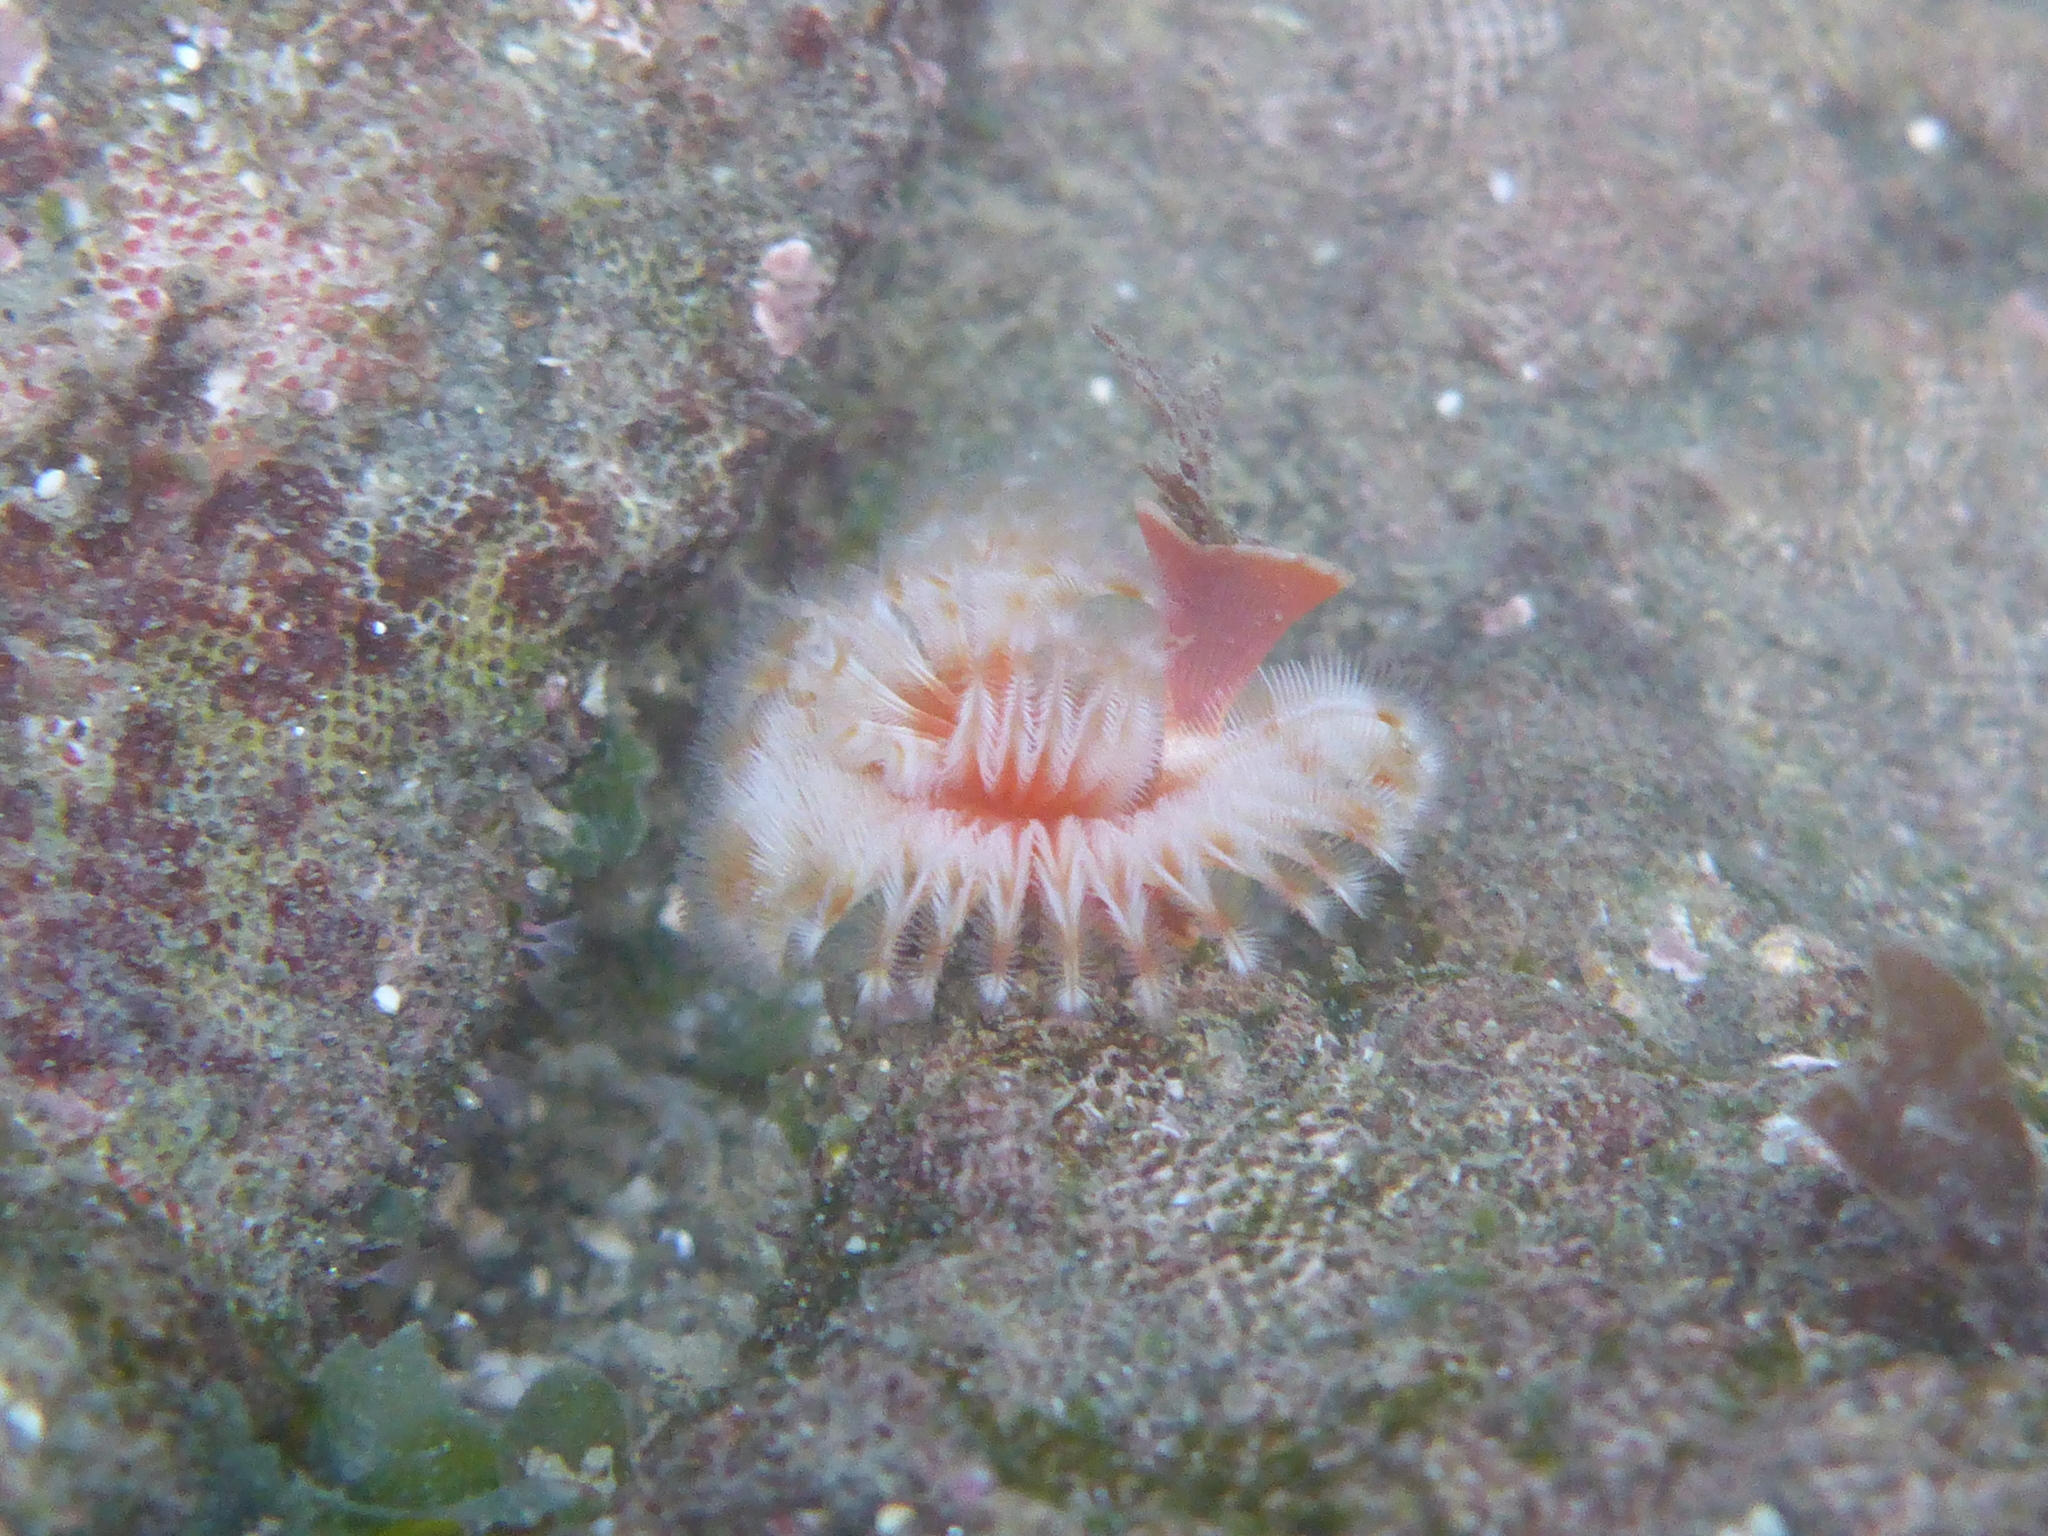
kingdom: Animalia
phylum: Annelida
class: Polychaeta
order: Sabellida
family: Serpulidae
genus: Serpula
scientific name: Serpula columbiana
